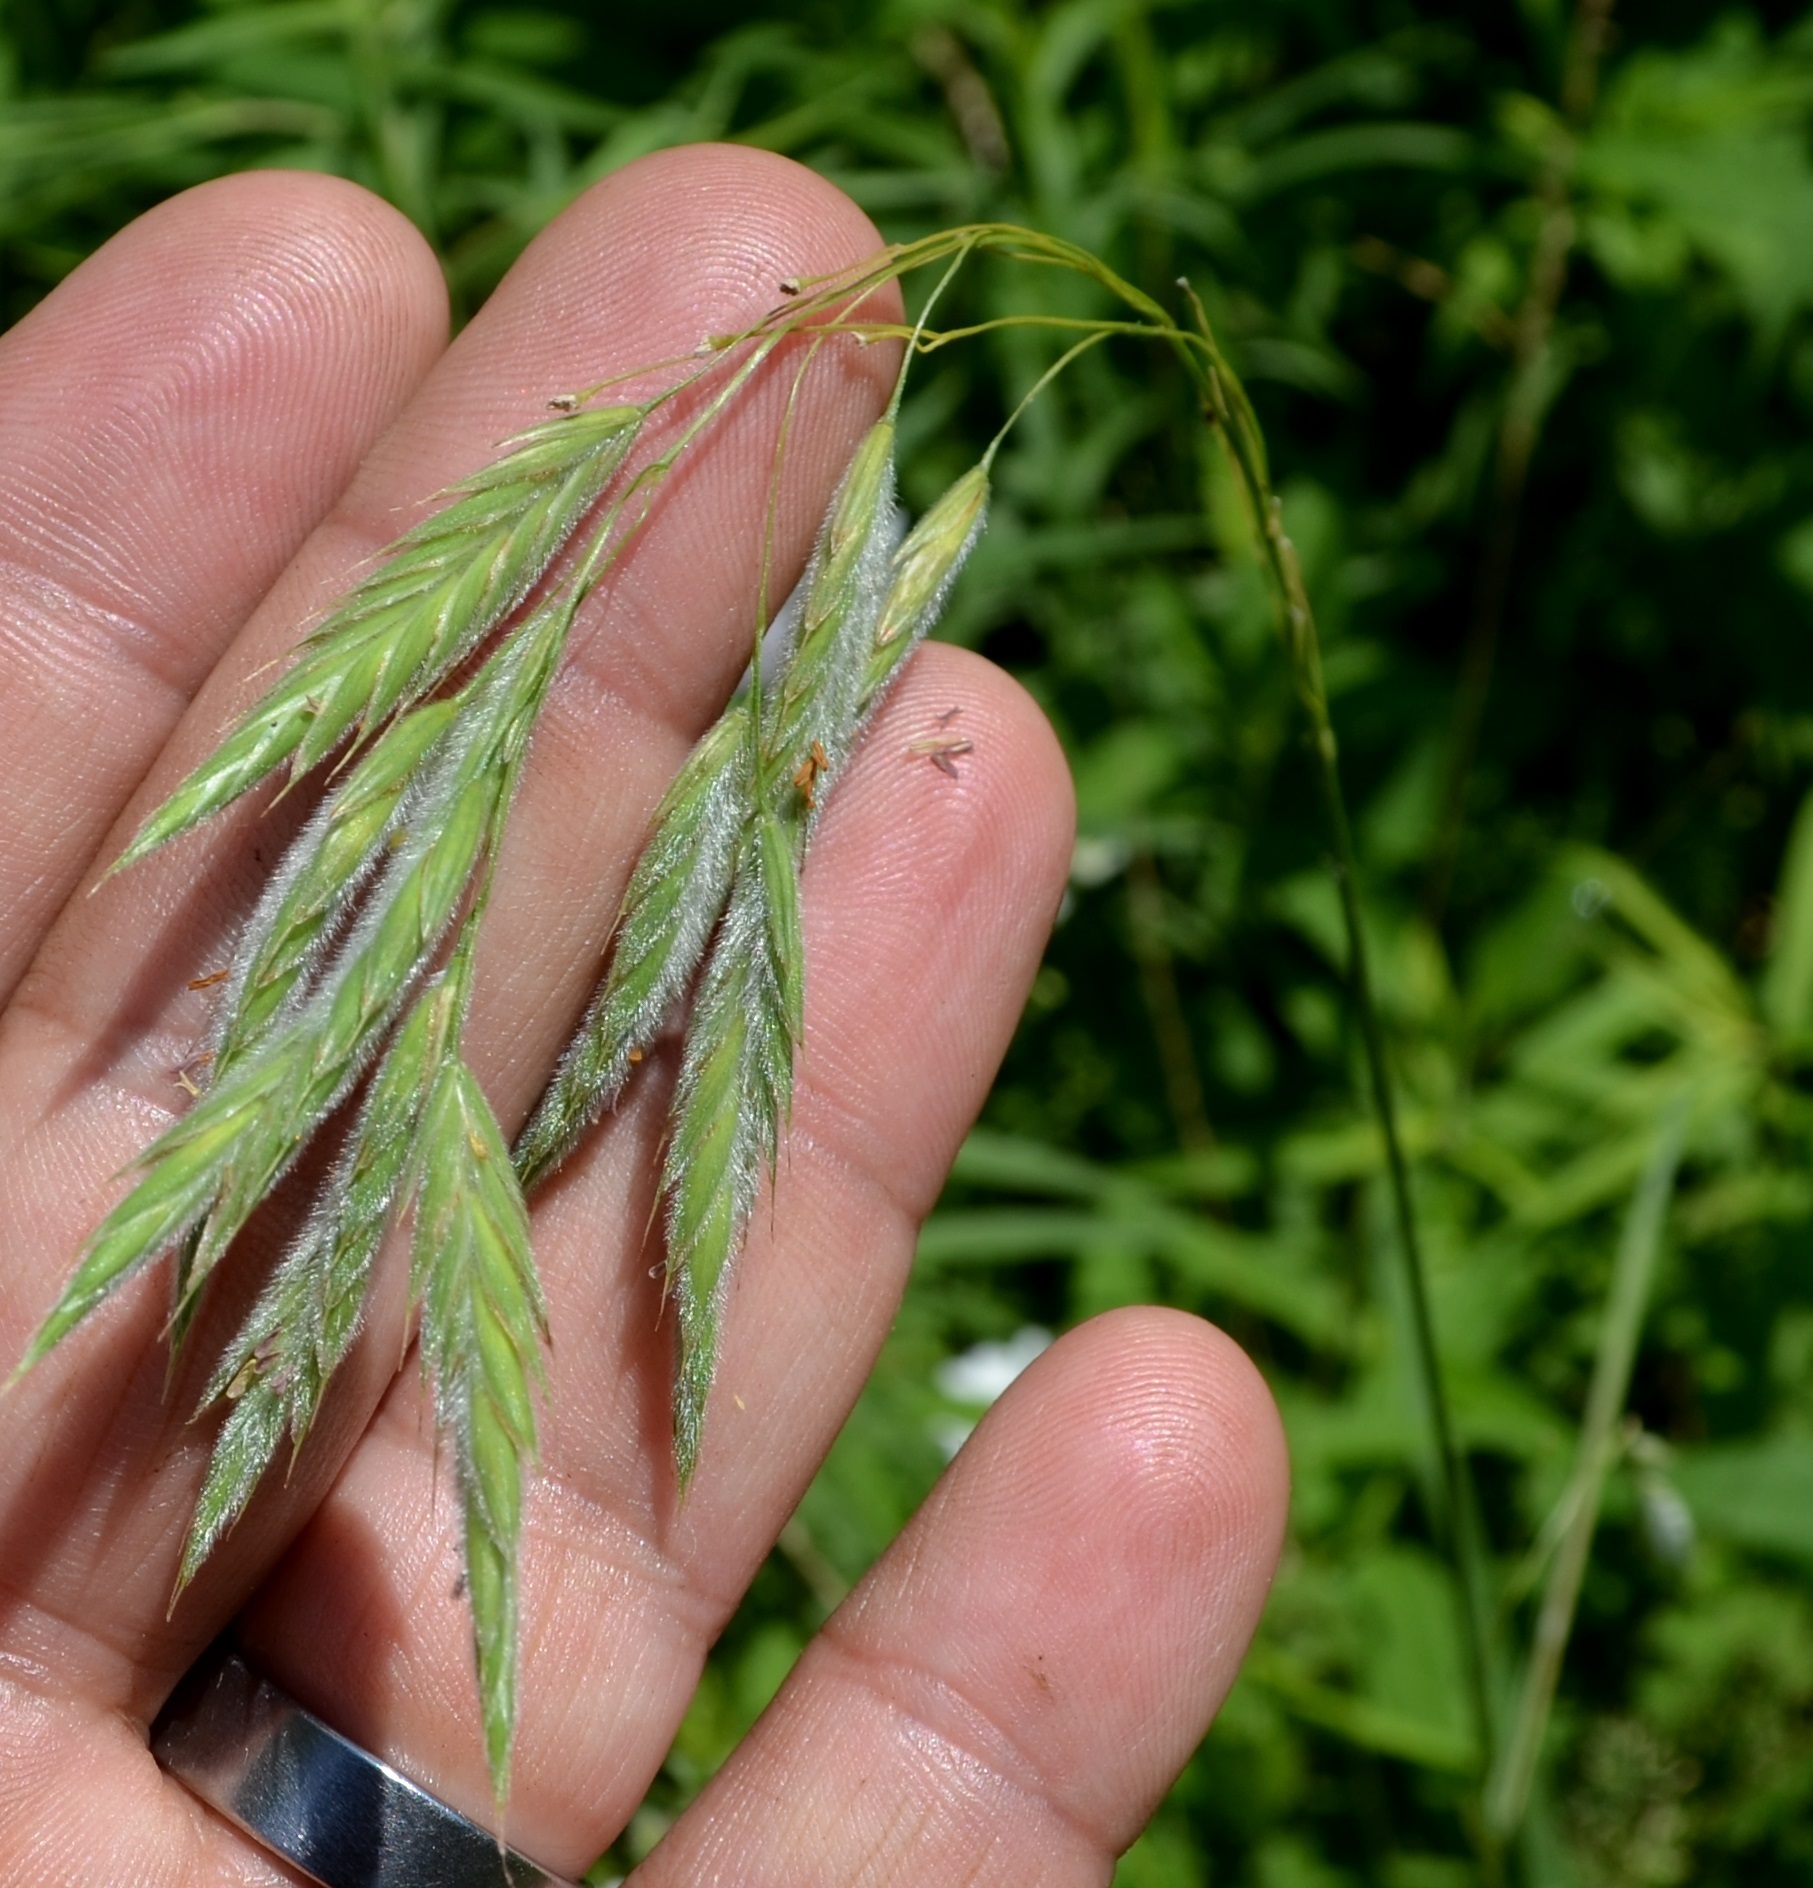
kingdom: Plantae
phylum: Tracheophyta
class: Liliopsida
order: Poales
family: Poaceae
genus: Bromus
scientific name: Bromus kalmii
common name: Kalm brome
